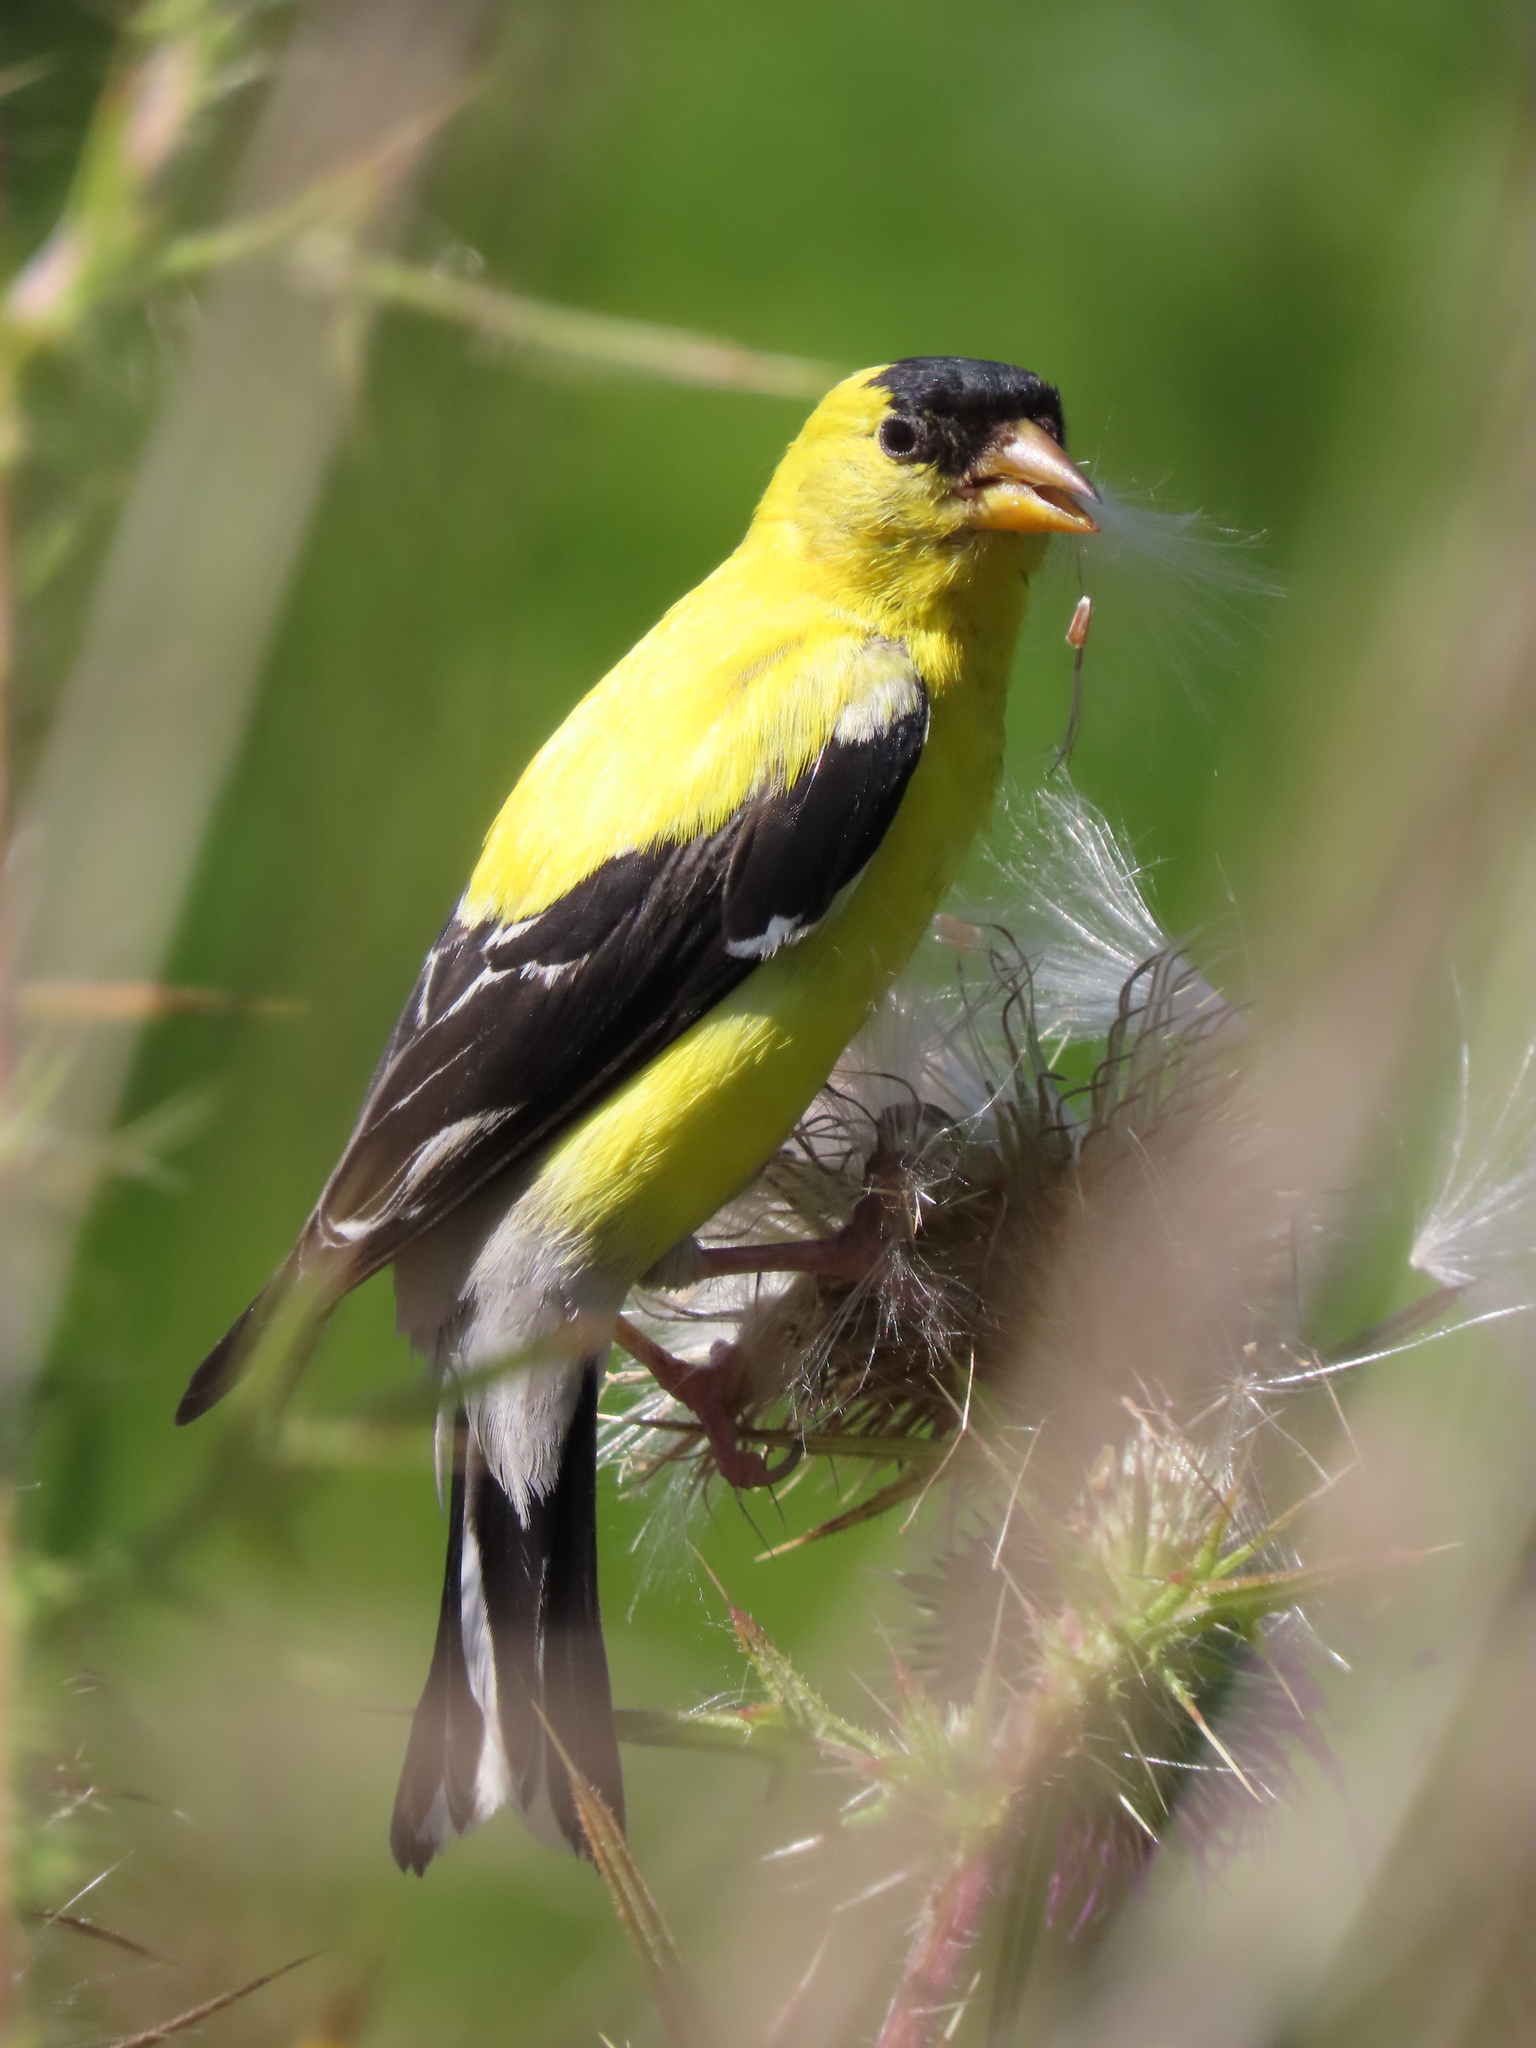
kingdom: Animalia
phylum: Chordata
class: Aves
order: Passeriformes
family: Fringillidae
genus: Spinus
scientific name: Spinus tristis
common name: American goldfinch
